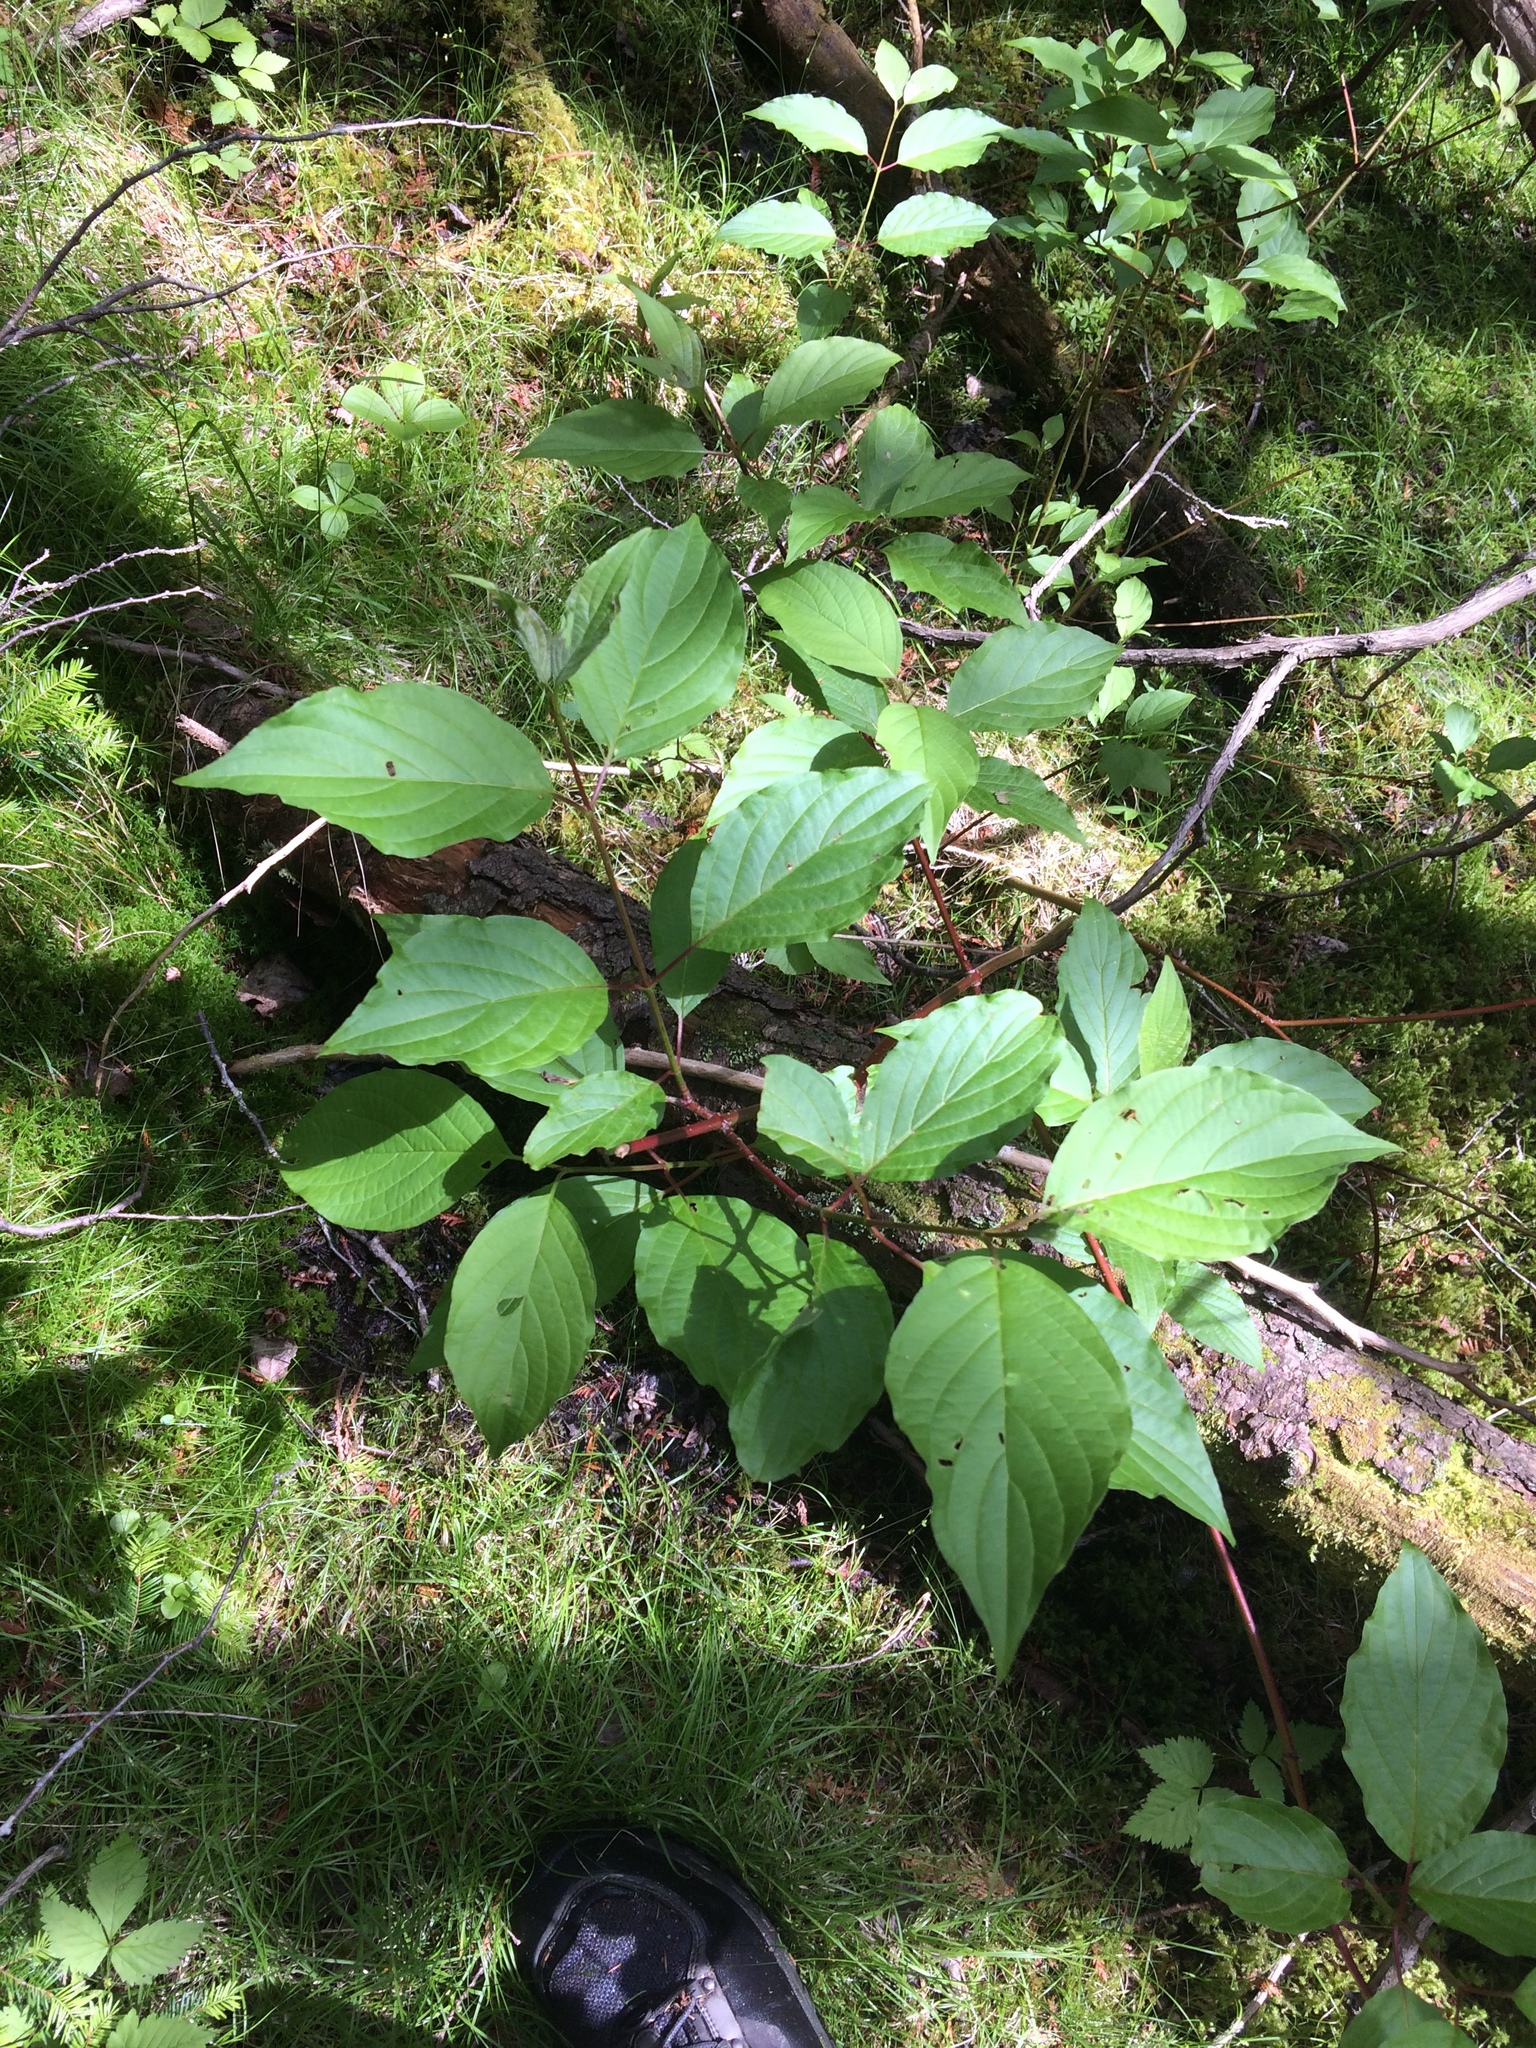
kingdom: Plantae
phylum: Tracheophyta
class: Magnoliopsida
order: Cornales
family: Cornaceae
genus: Cornus
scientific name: Cornus sericea
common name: Red-osier dogwood
